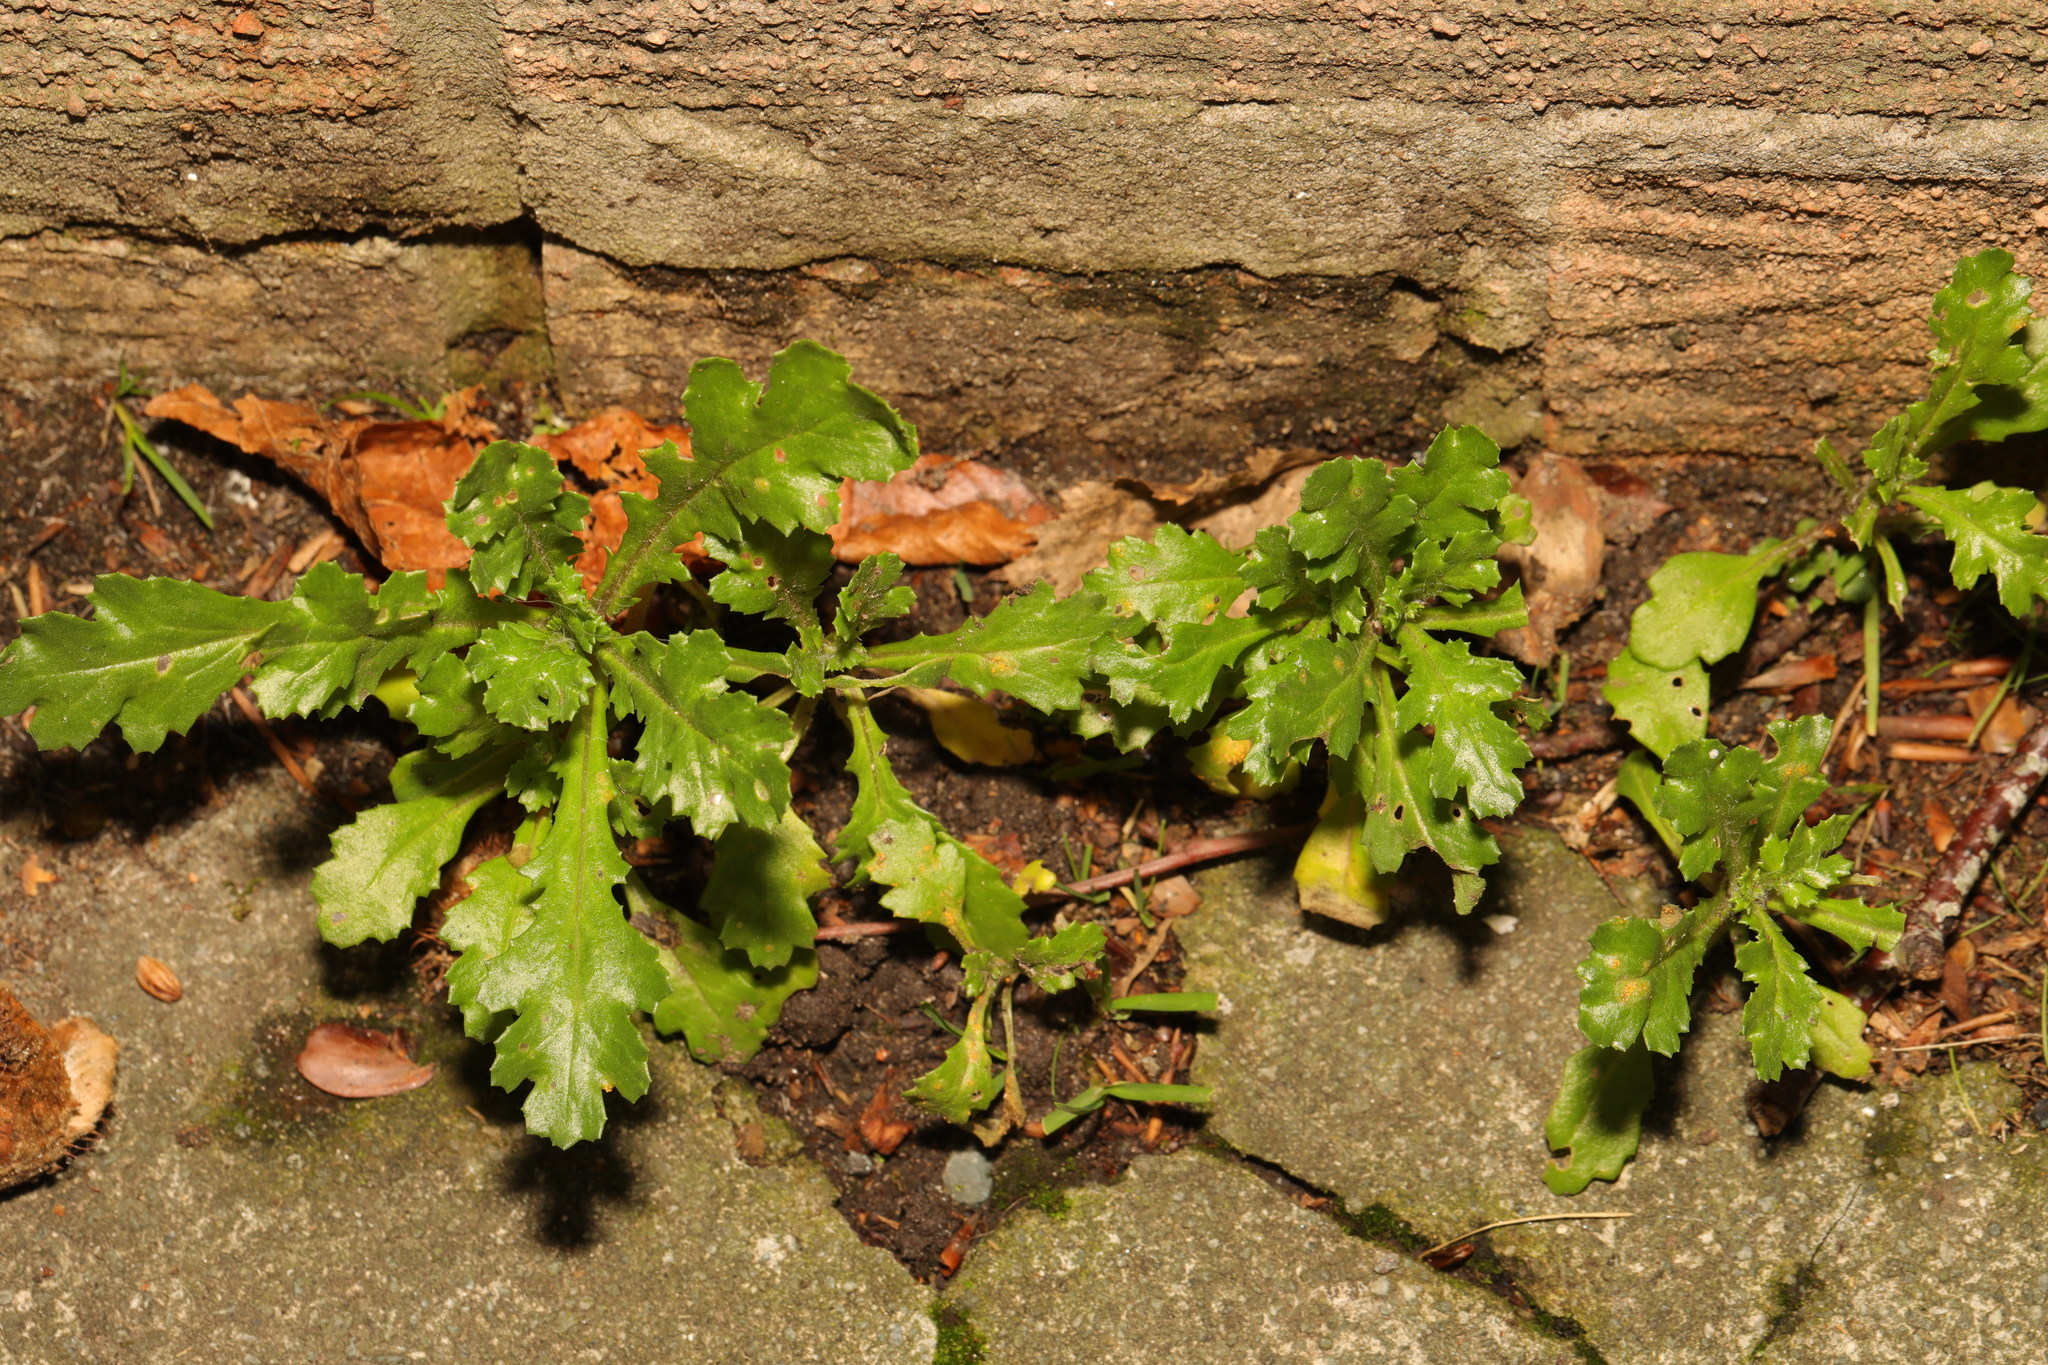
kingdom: Plantae
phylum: Tracheophyta
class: Magnoliopsida
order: Asterales
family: Asteraceae
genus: Senecio
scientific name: Senecio vulgaris
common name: Old-man-in-the-spring
